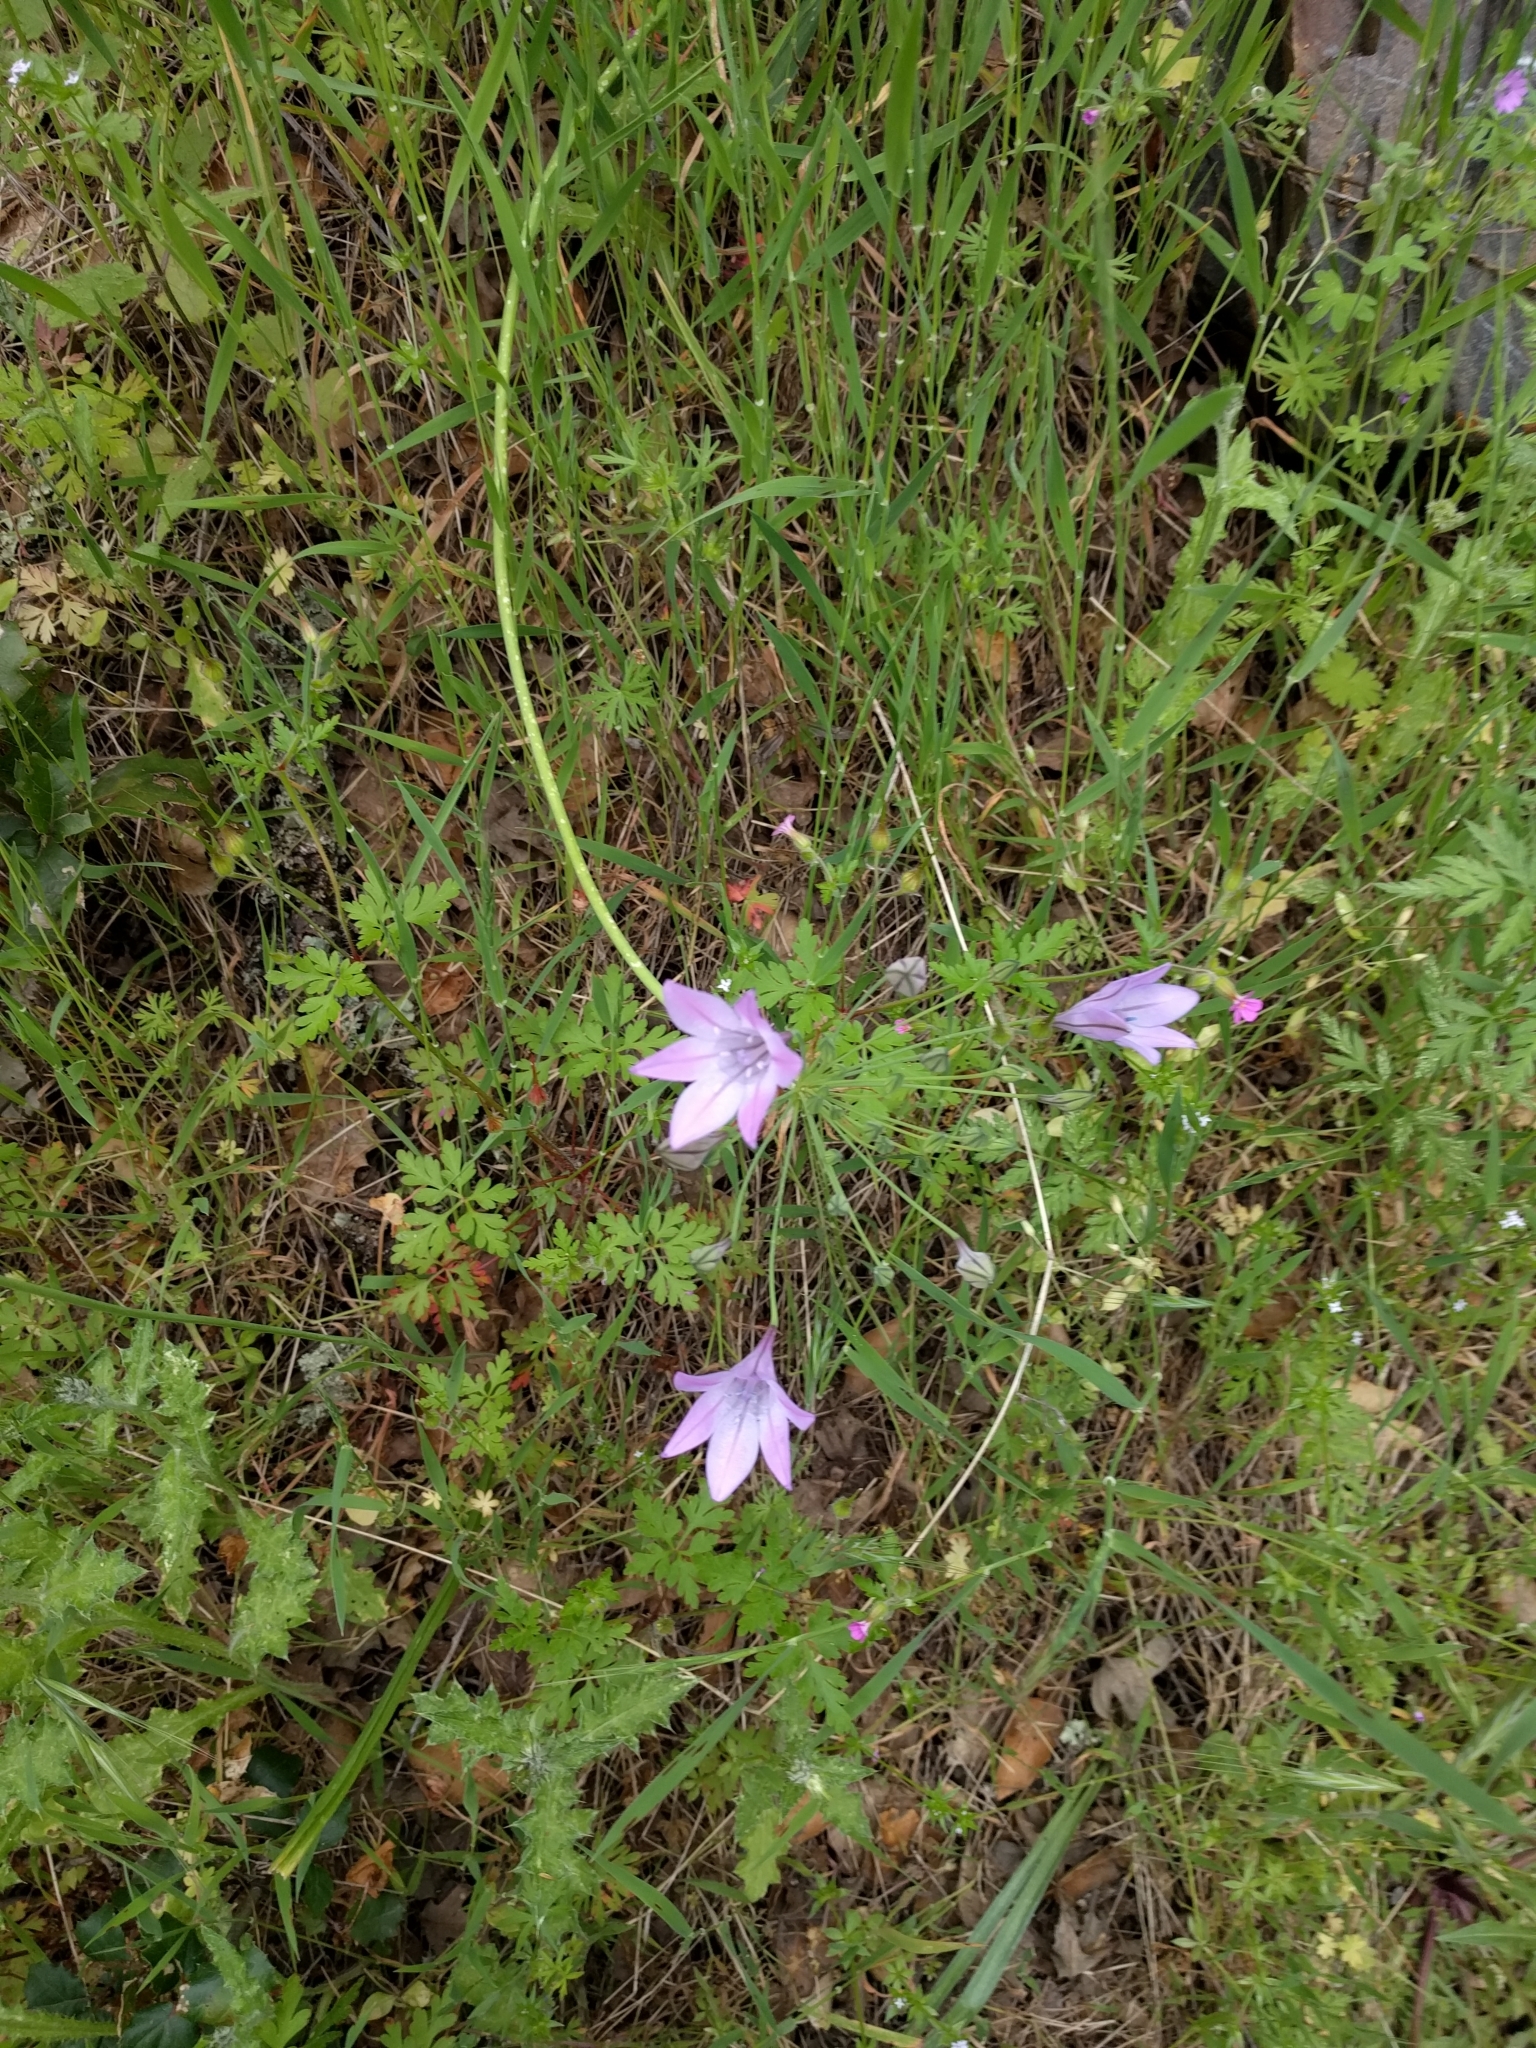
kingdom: Plantae
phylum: Tracheophyta
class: Liliopsida
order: Asparagales
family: Asparagaceae
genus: Triteleia
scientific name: Triteleia laxa
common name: Triplet-lily
